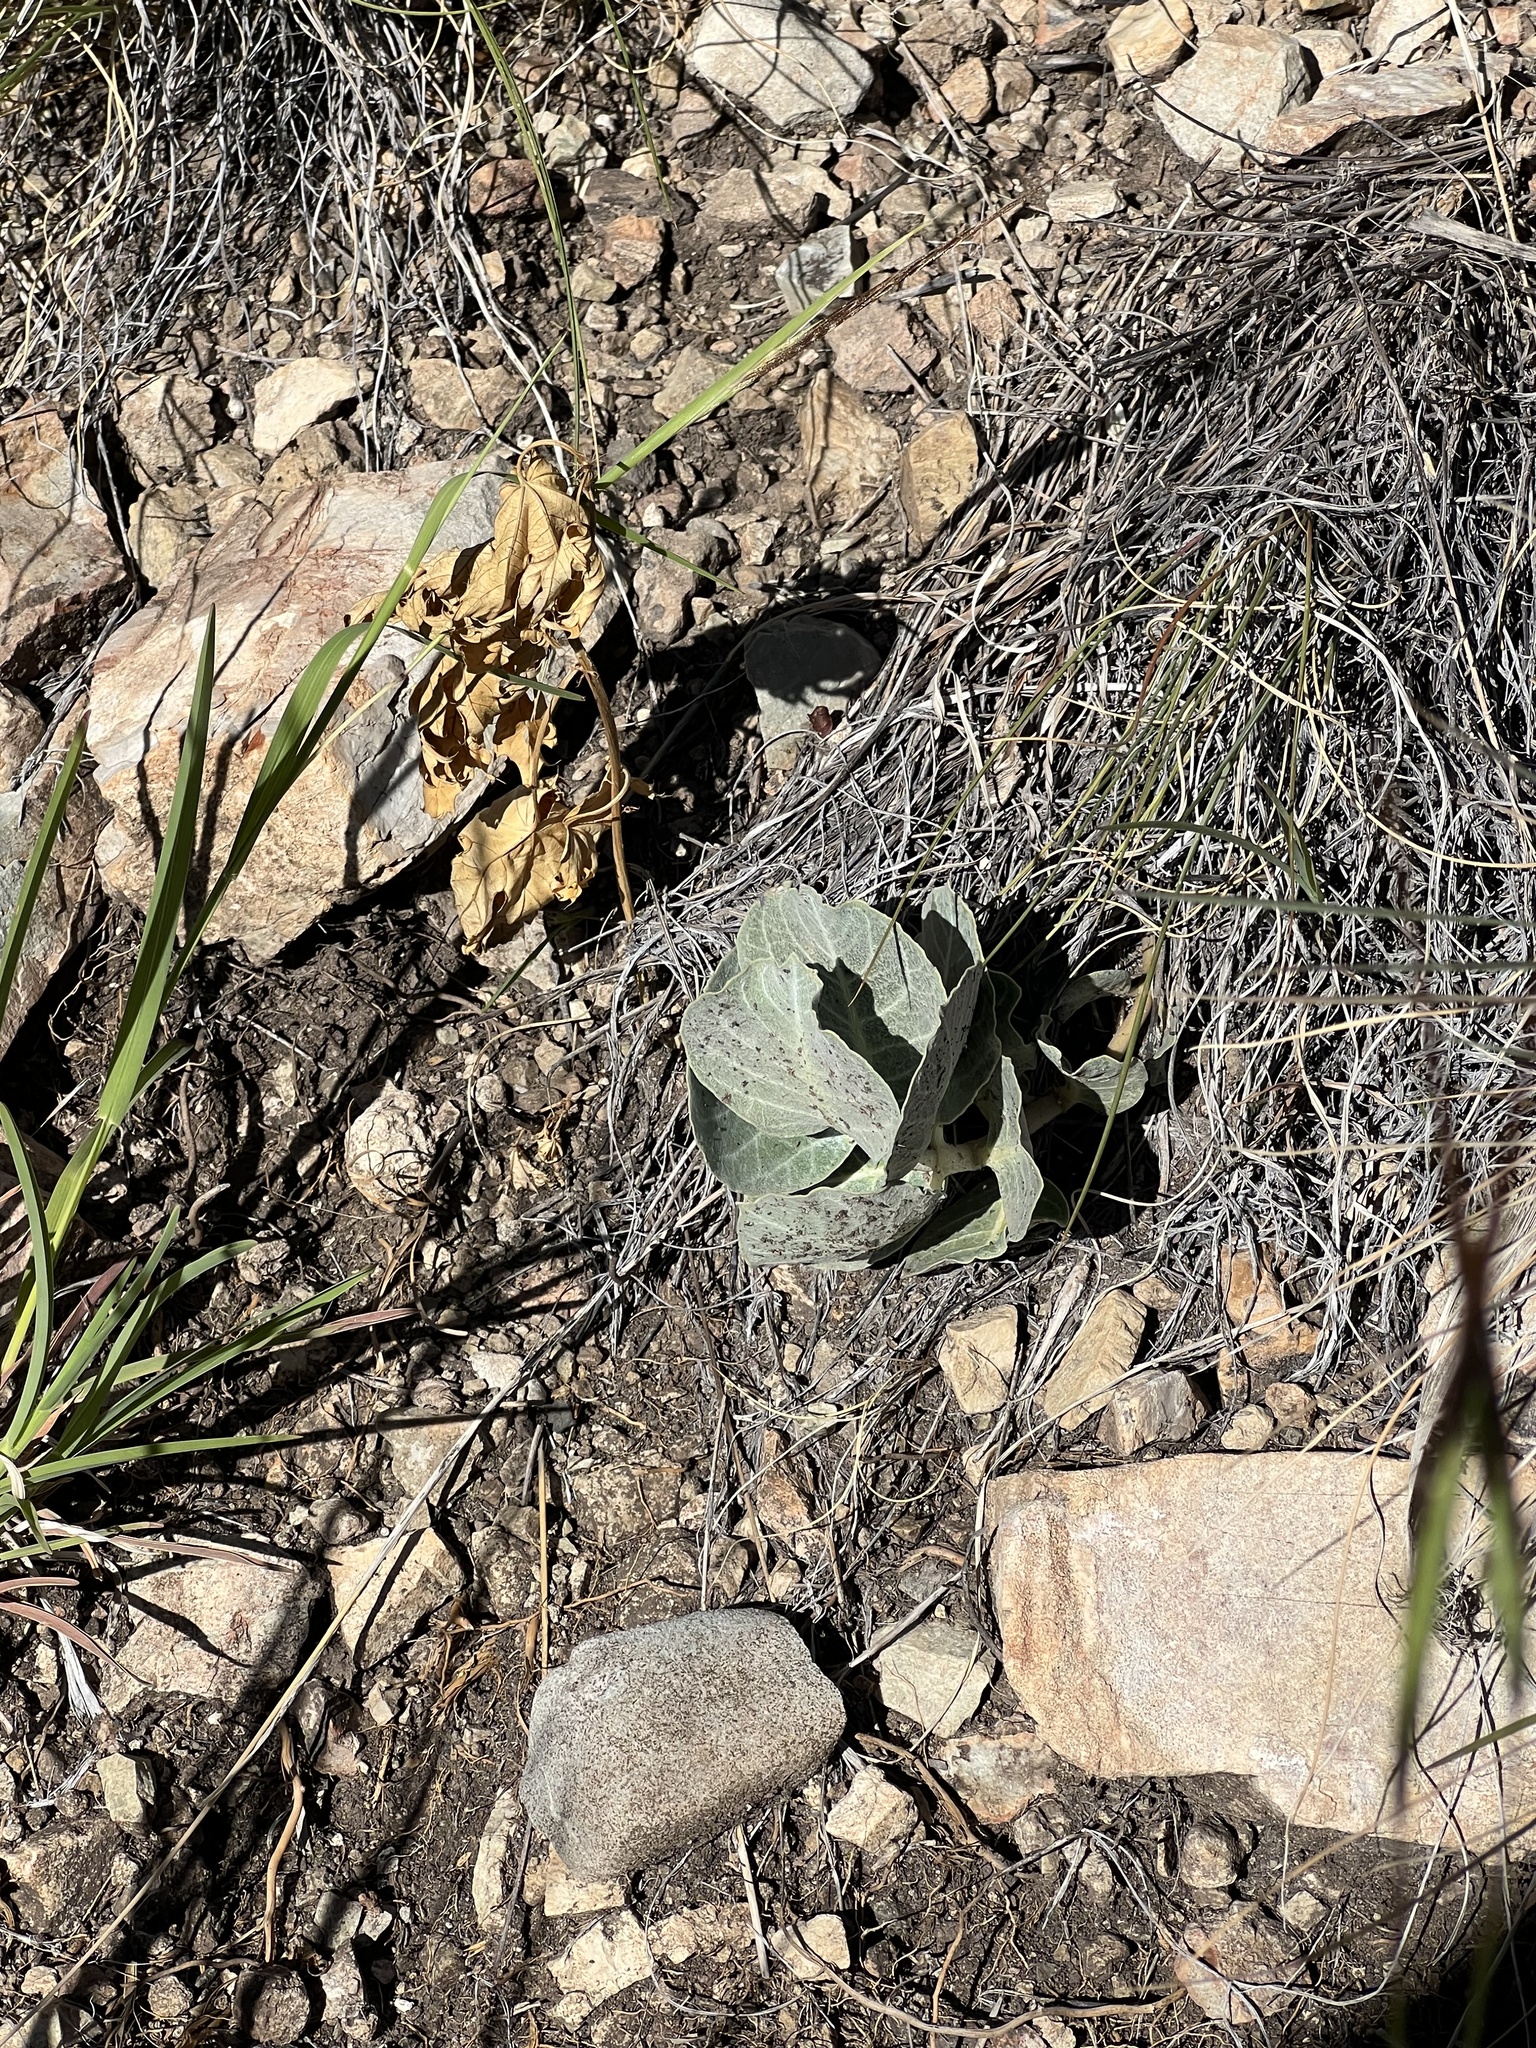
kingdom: Plantae
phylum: Tracheophyta
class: Magnoliopsida
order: Gentianales
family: Apocynaceae
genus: Asclepias
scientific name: Asclepias nummularia
